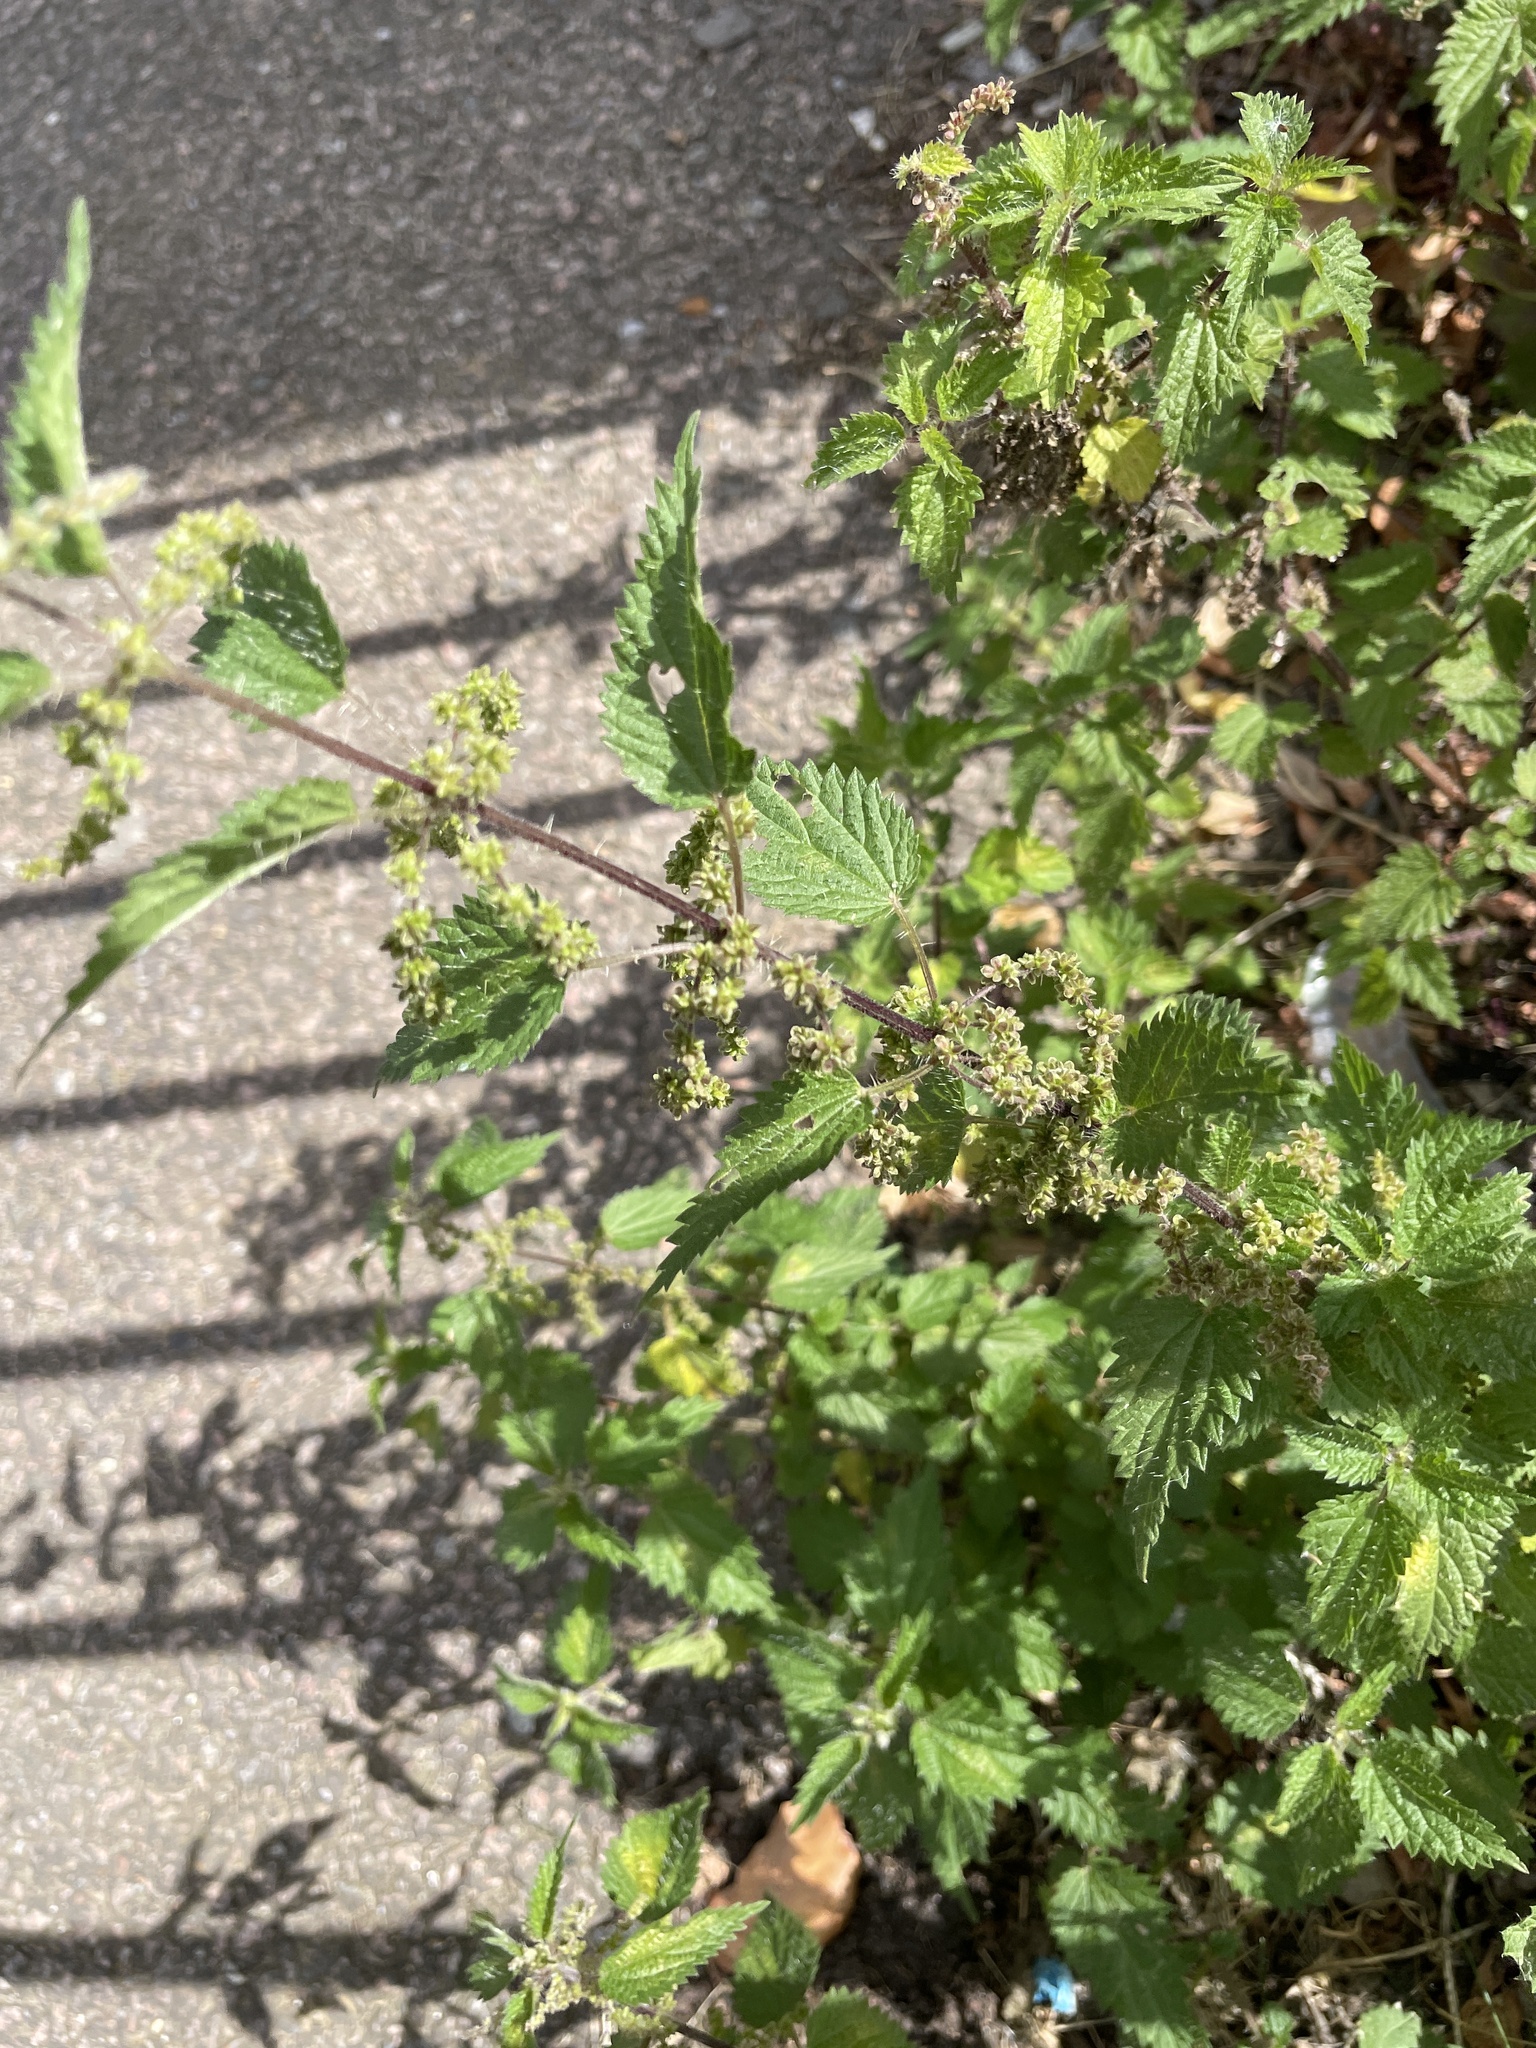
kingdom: Plantae
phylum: Tracheophyta
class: Magnoliopsida
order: Rosales
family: Urticaceae
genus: Urtica
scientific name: Urtica dioica
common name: Common nettle
